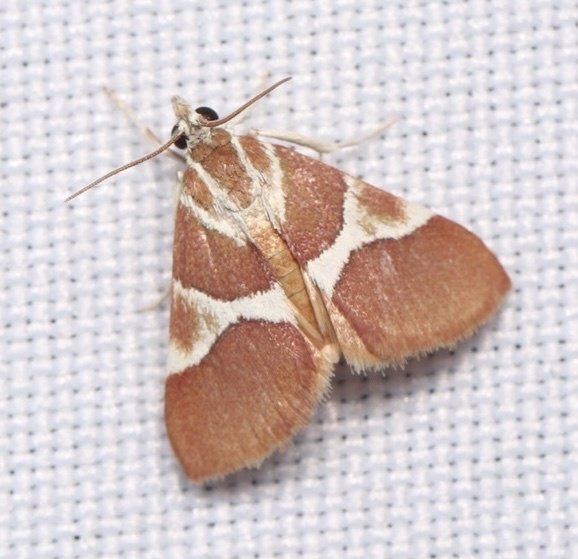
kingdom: Animalia
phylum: Arthropoda
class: Insecta
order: Lepidoptera
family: Crambidae
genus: Jativa
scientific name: Jativa castanealis
